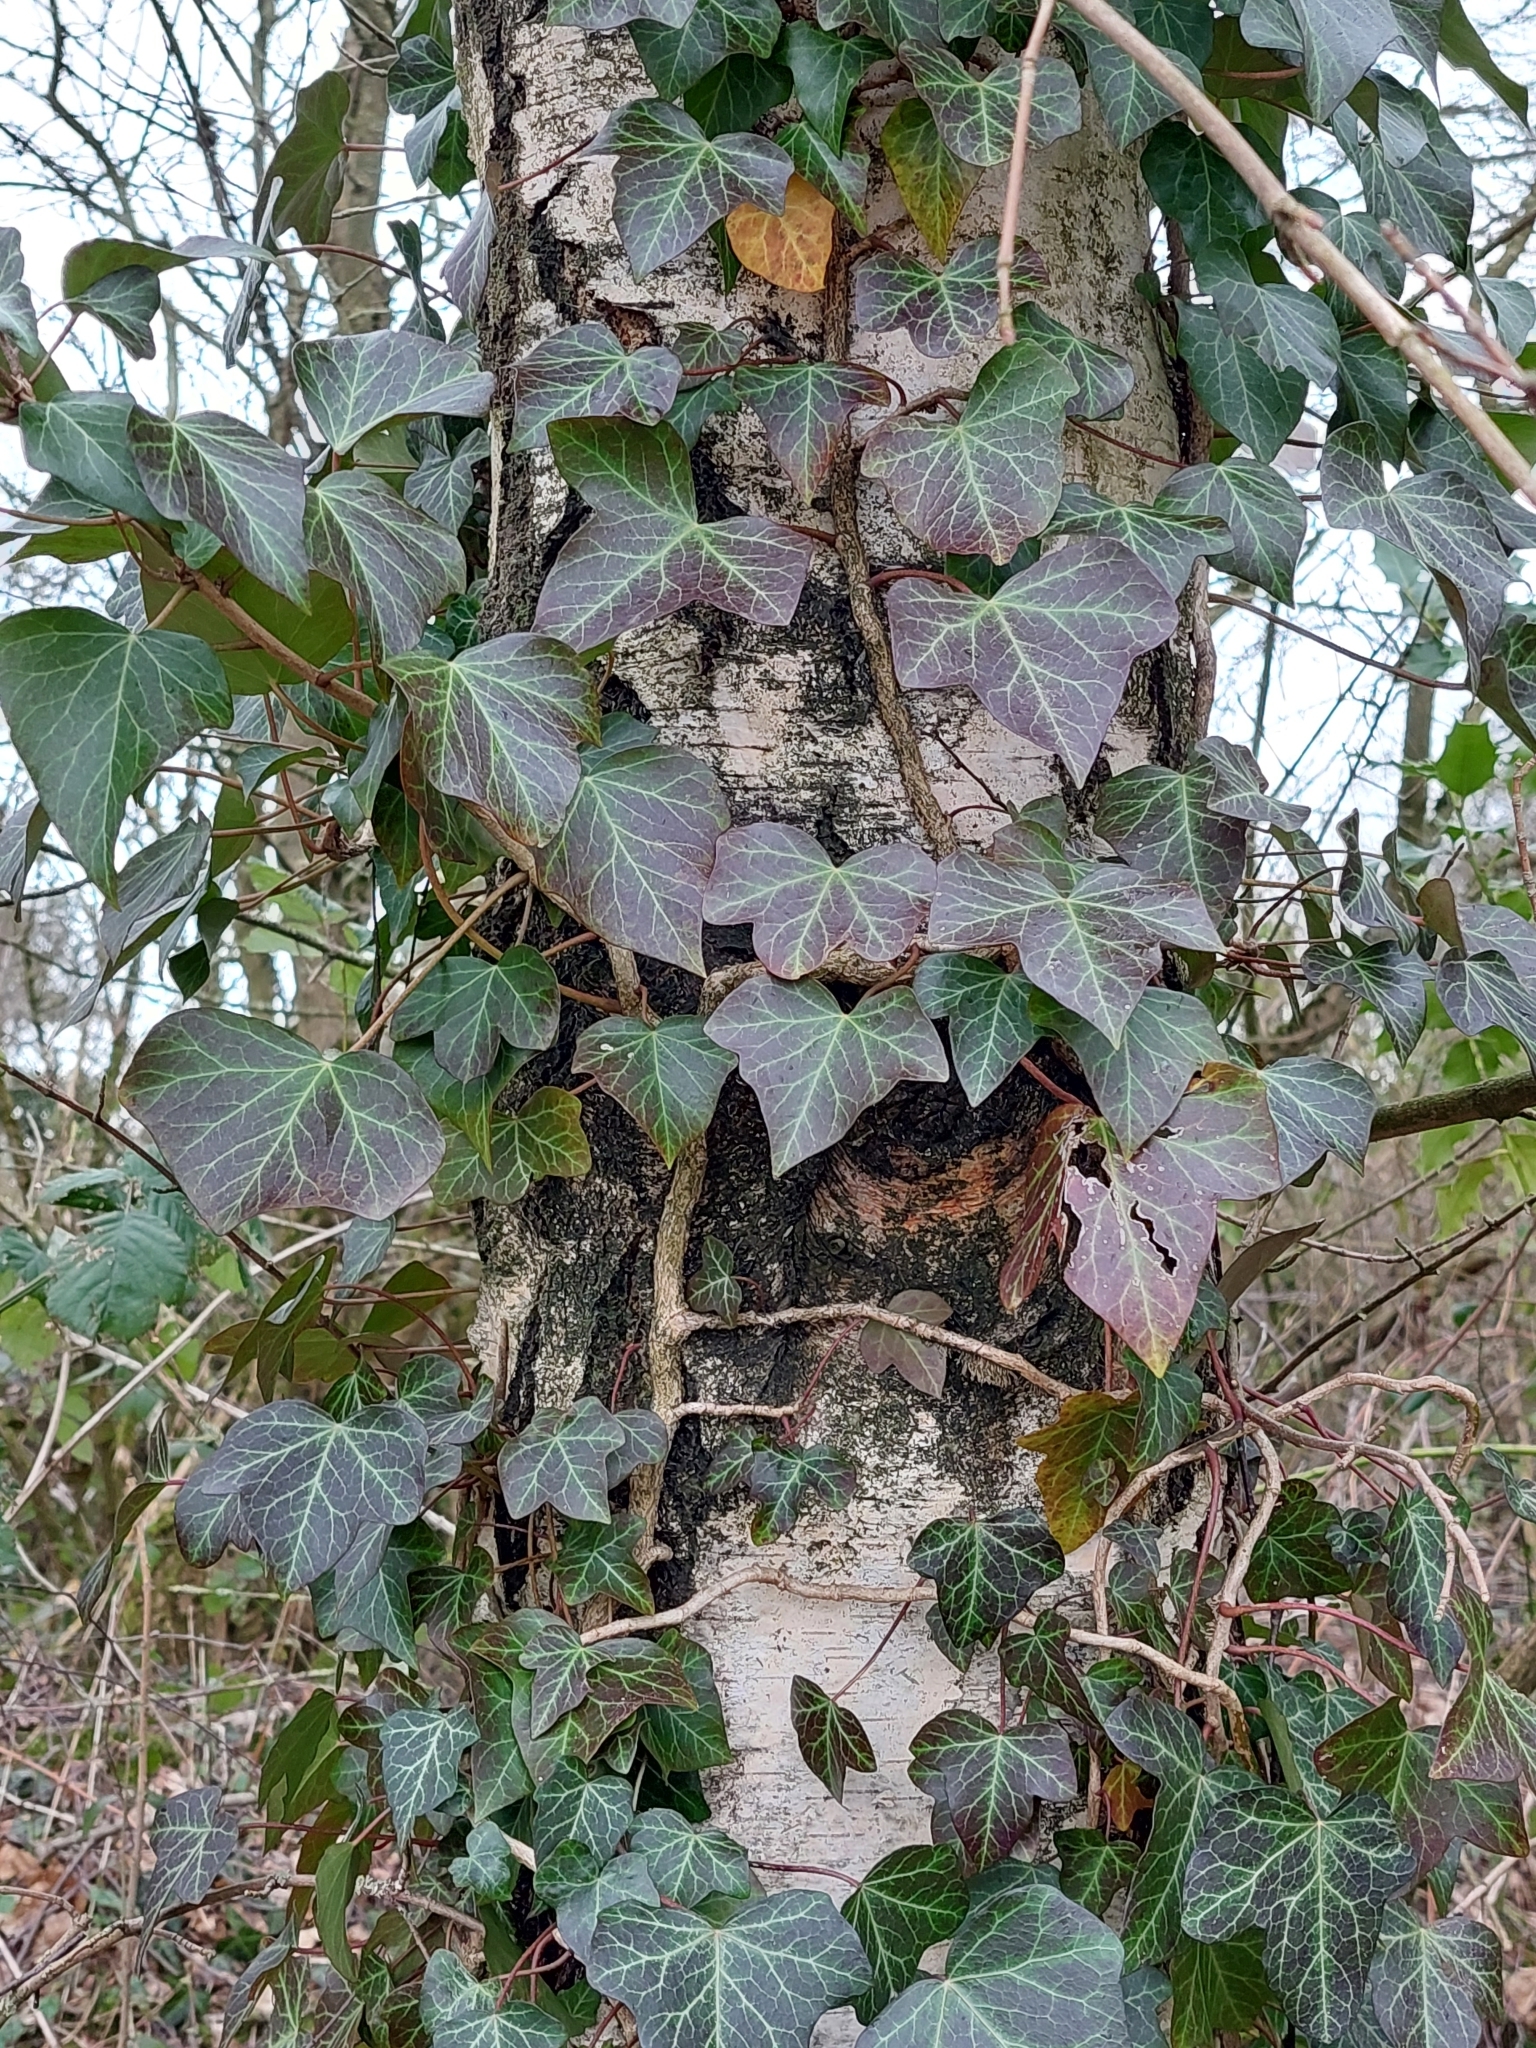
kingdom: Plantae
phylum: Tracheophyta
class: Magnoliopsida
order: Apiales
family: Araliaceae
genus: Hedera
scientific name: Hedera helix
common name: Ivy
